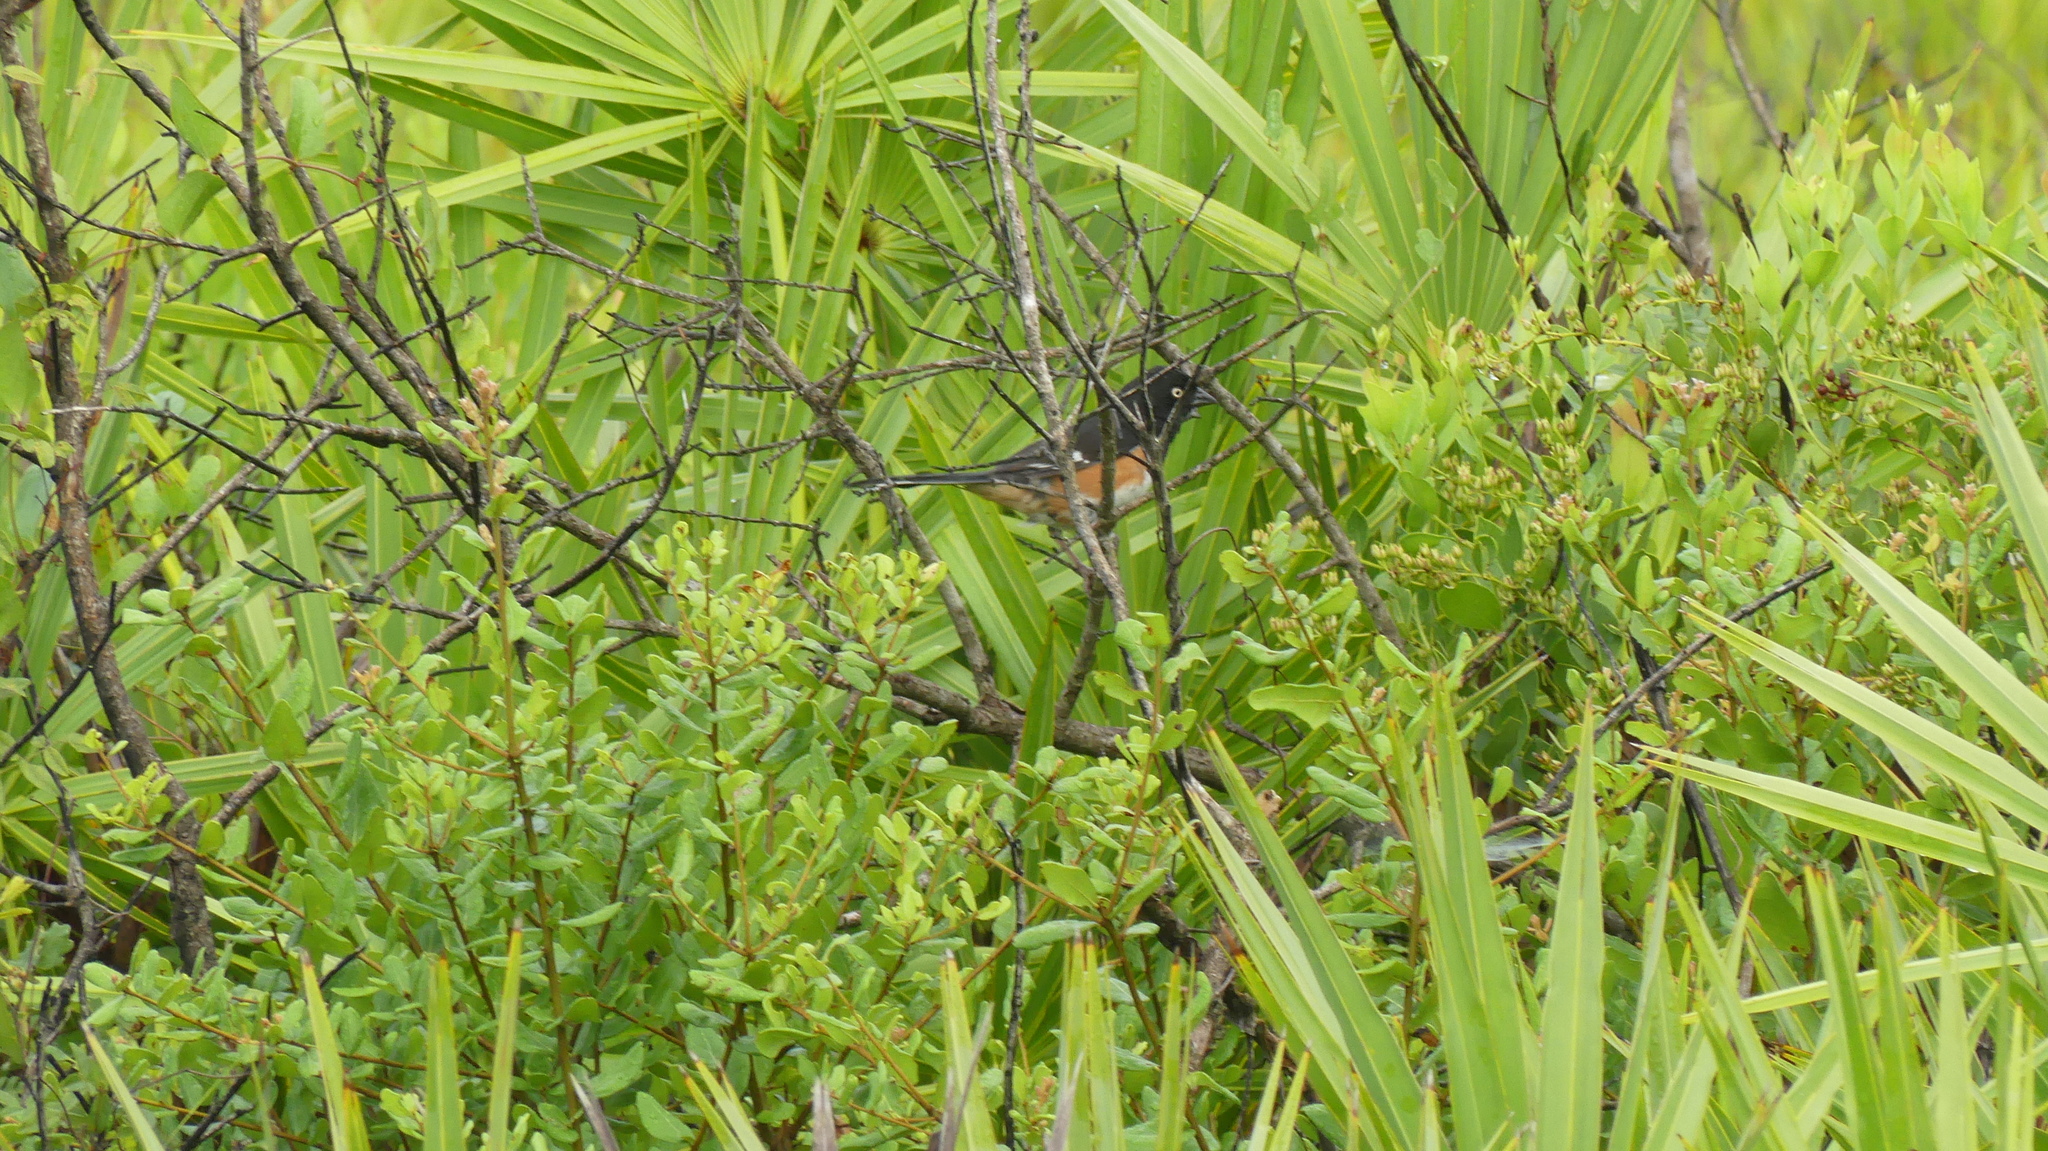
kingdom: Animalia
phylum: Chordata
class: Aves
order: Passeriformes
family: Passerellidae
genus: Pipilo
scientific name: Pipilo erythrophthalmus
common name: Eastern towhee
